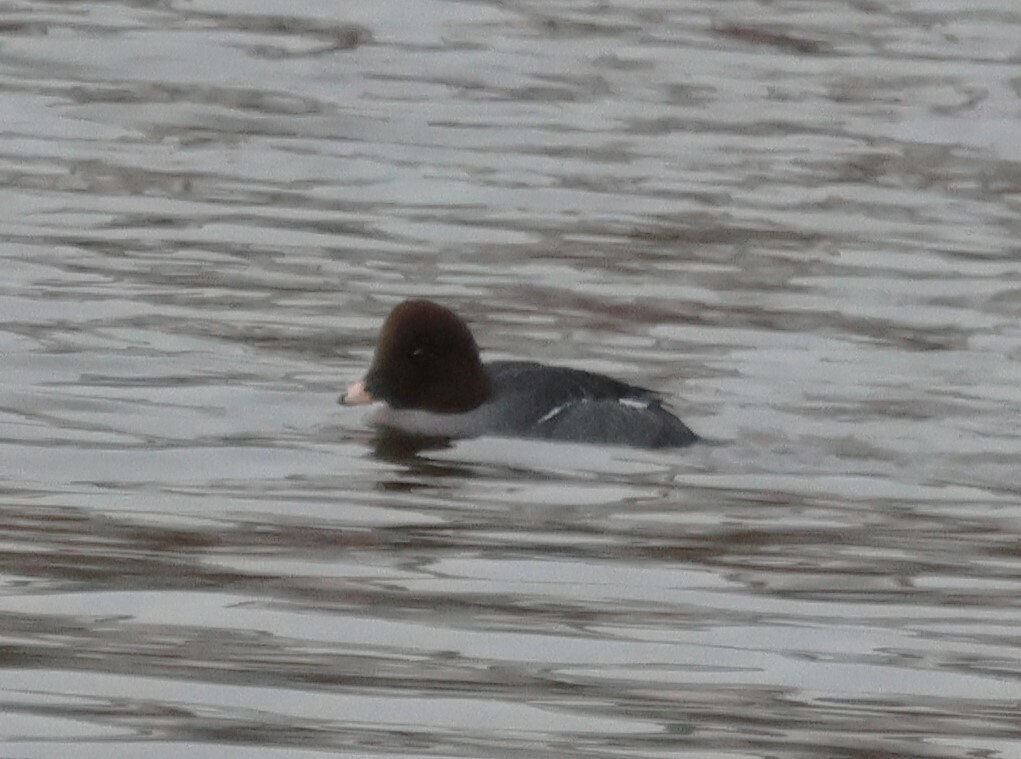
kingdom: Animalia
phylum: Chordata
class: Aves
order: Anseriformes
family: Anatidae
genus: Bucephala
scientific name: Bucephala clangula
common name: Common goldeneye
